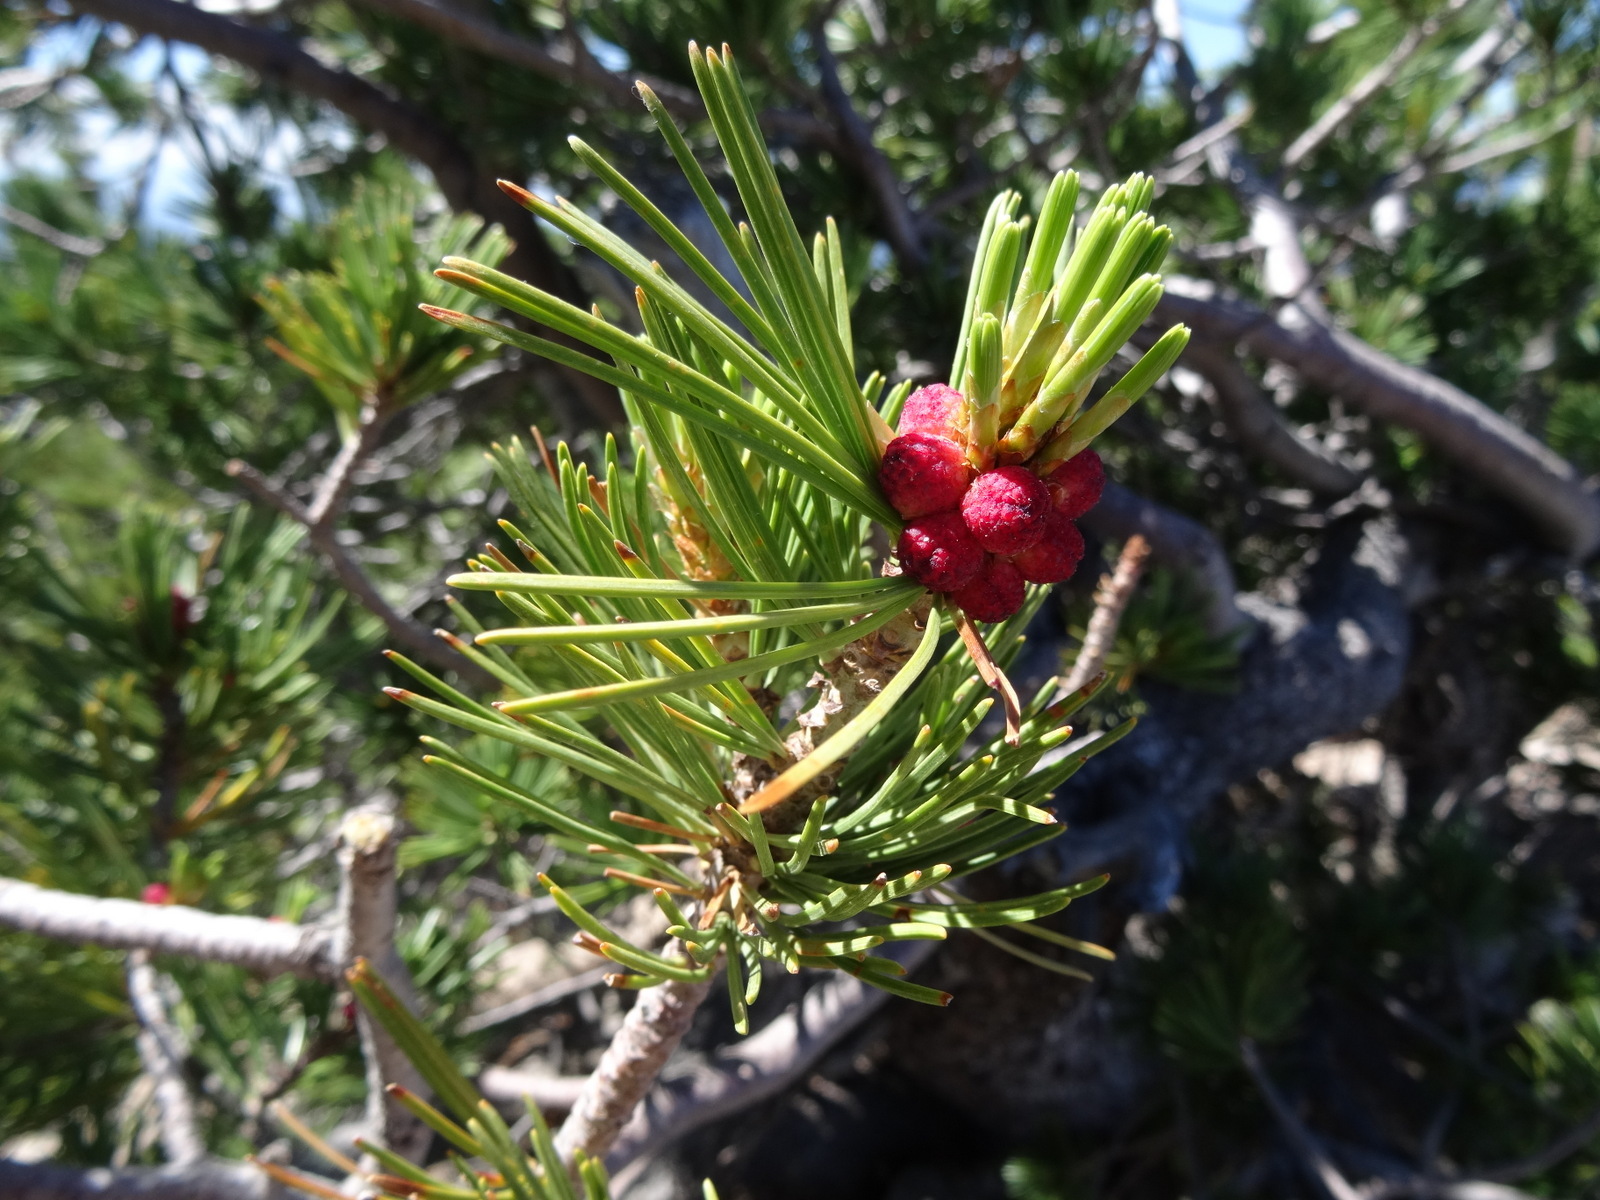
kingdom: Plantae
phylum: Tracheophyta
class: Pinopsida
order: Pinales
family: Pinaceae
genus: Pinus
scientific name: Pinus albicaulis
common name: Whitebark pine
